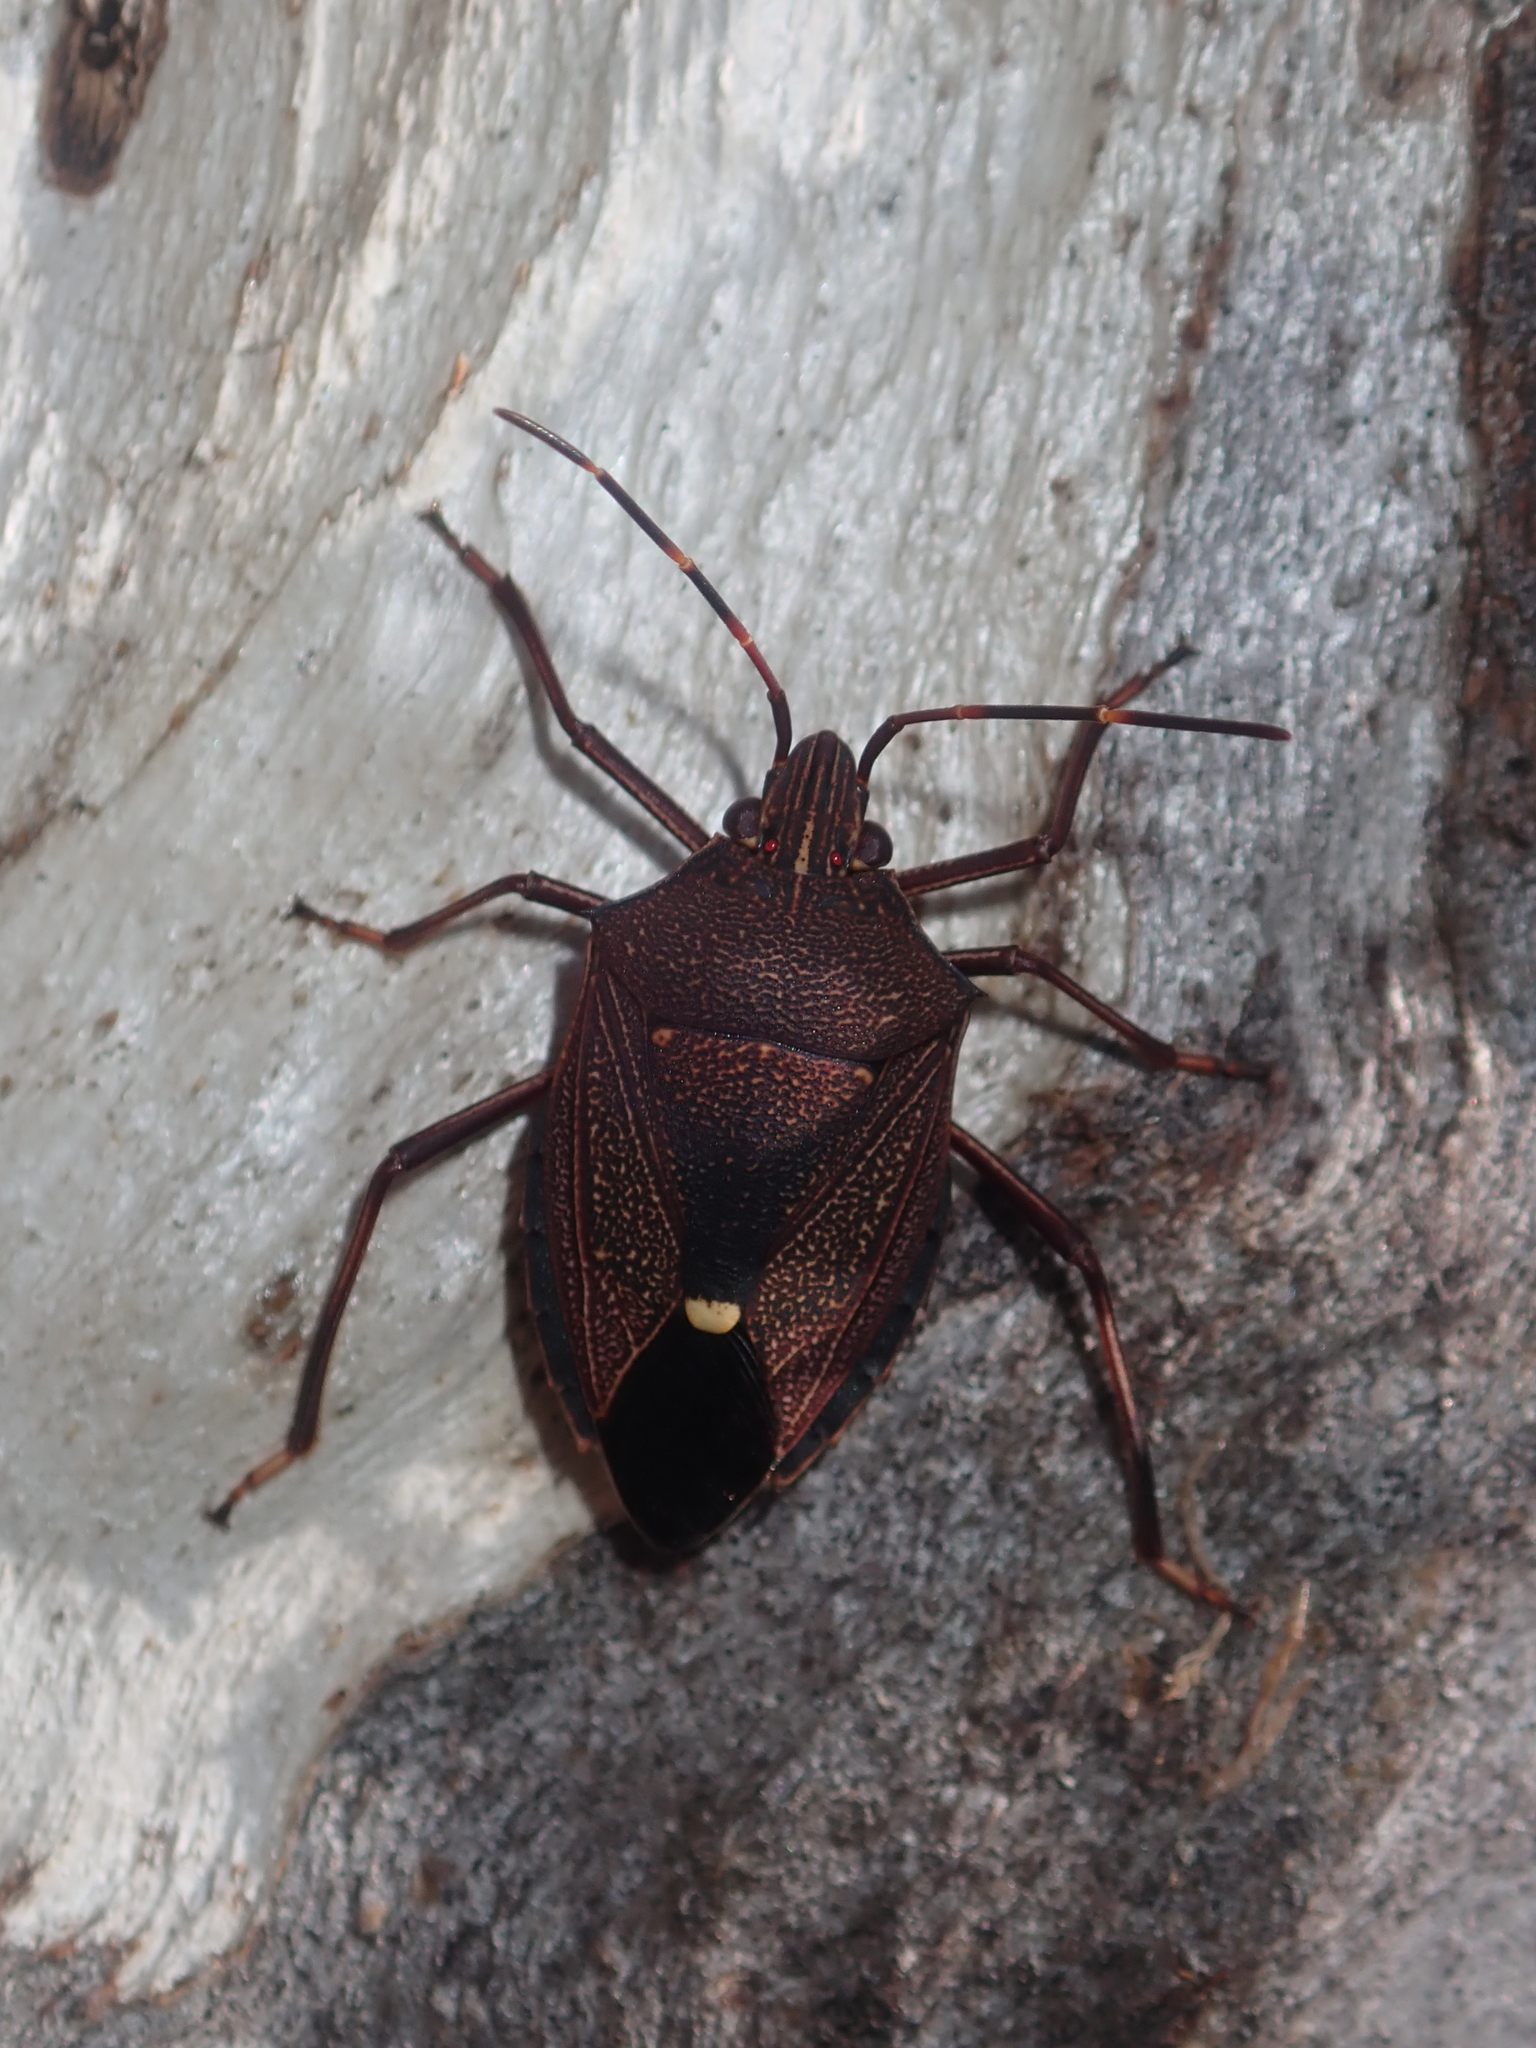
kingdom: Animalia
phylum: Arthropoda
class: Insecta
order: Hemiptera
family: Pentatomidae
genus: Poecilometis
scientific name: Poecilometis
